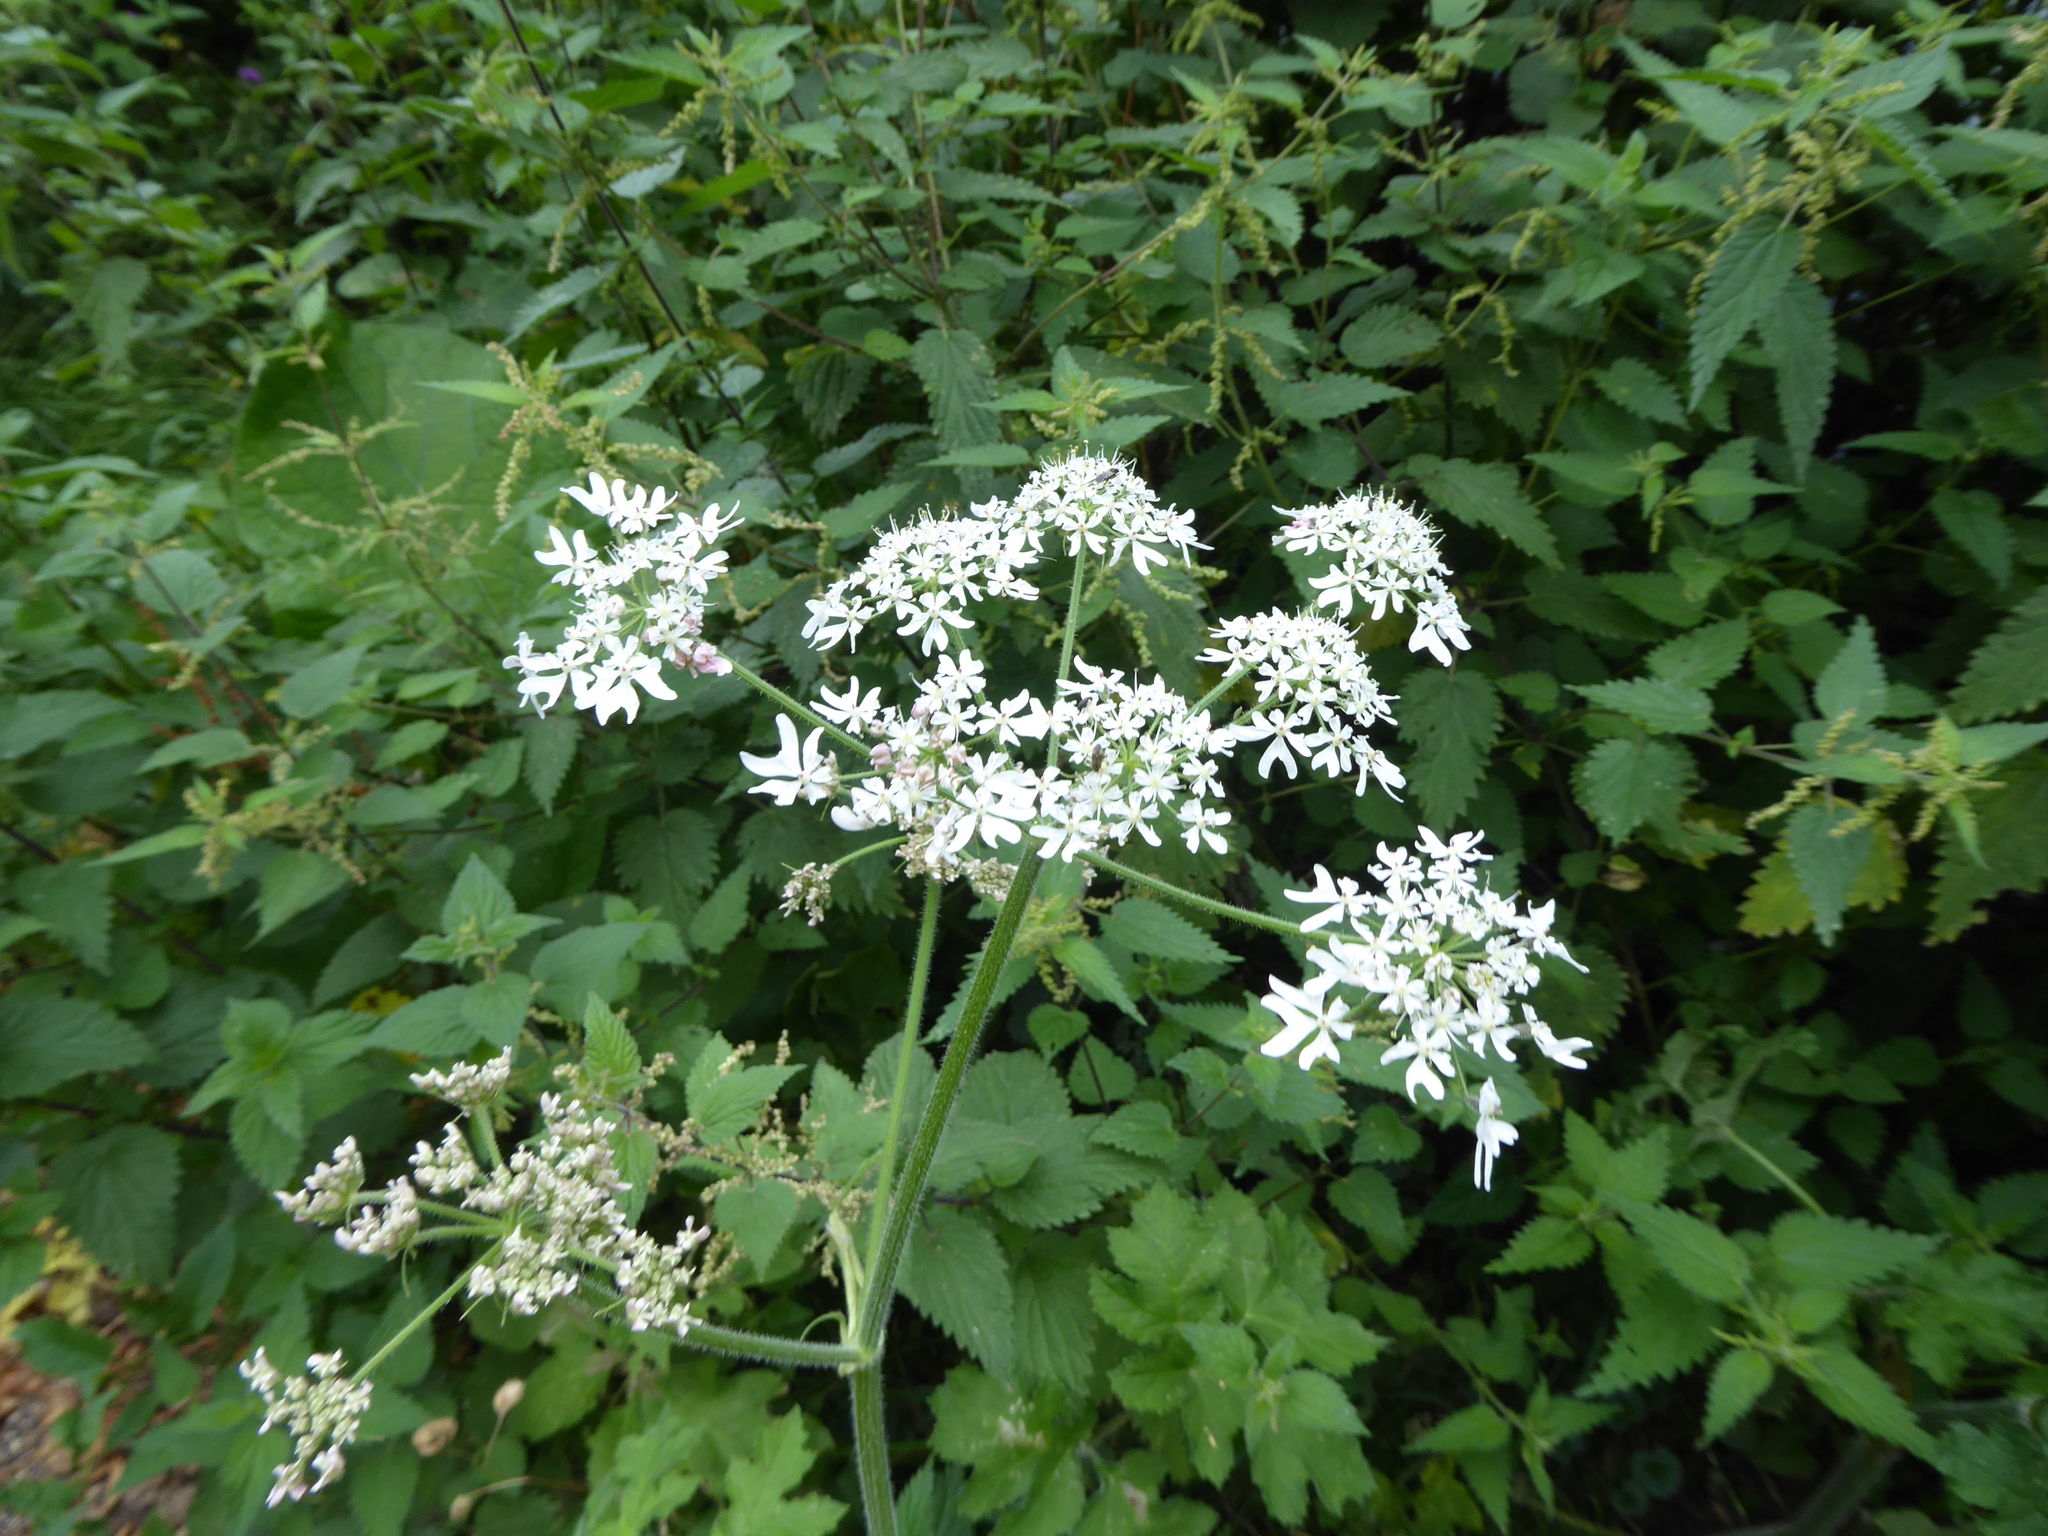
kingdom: Plantae
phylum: Tracheophyta
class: Magnoliopsida
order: Apiales
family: Apiaceae
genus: Heracleum
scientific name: Heracleum sphondylium
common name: Hogweed
